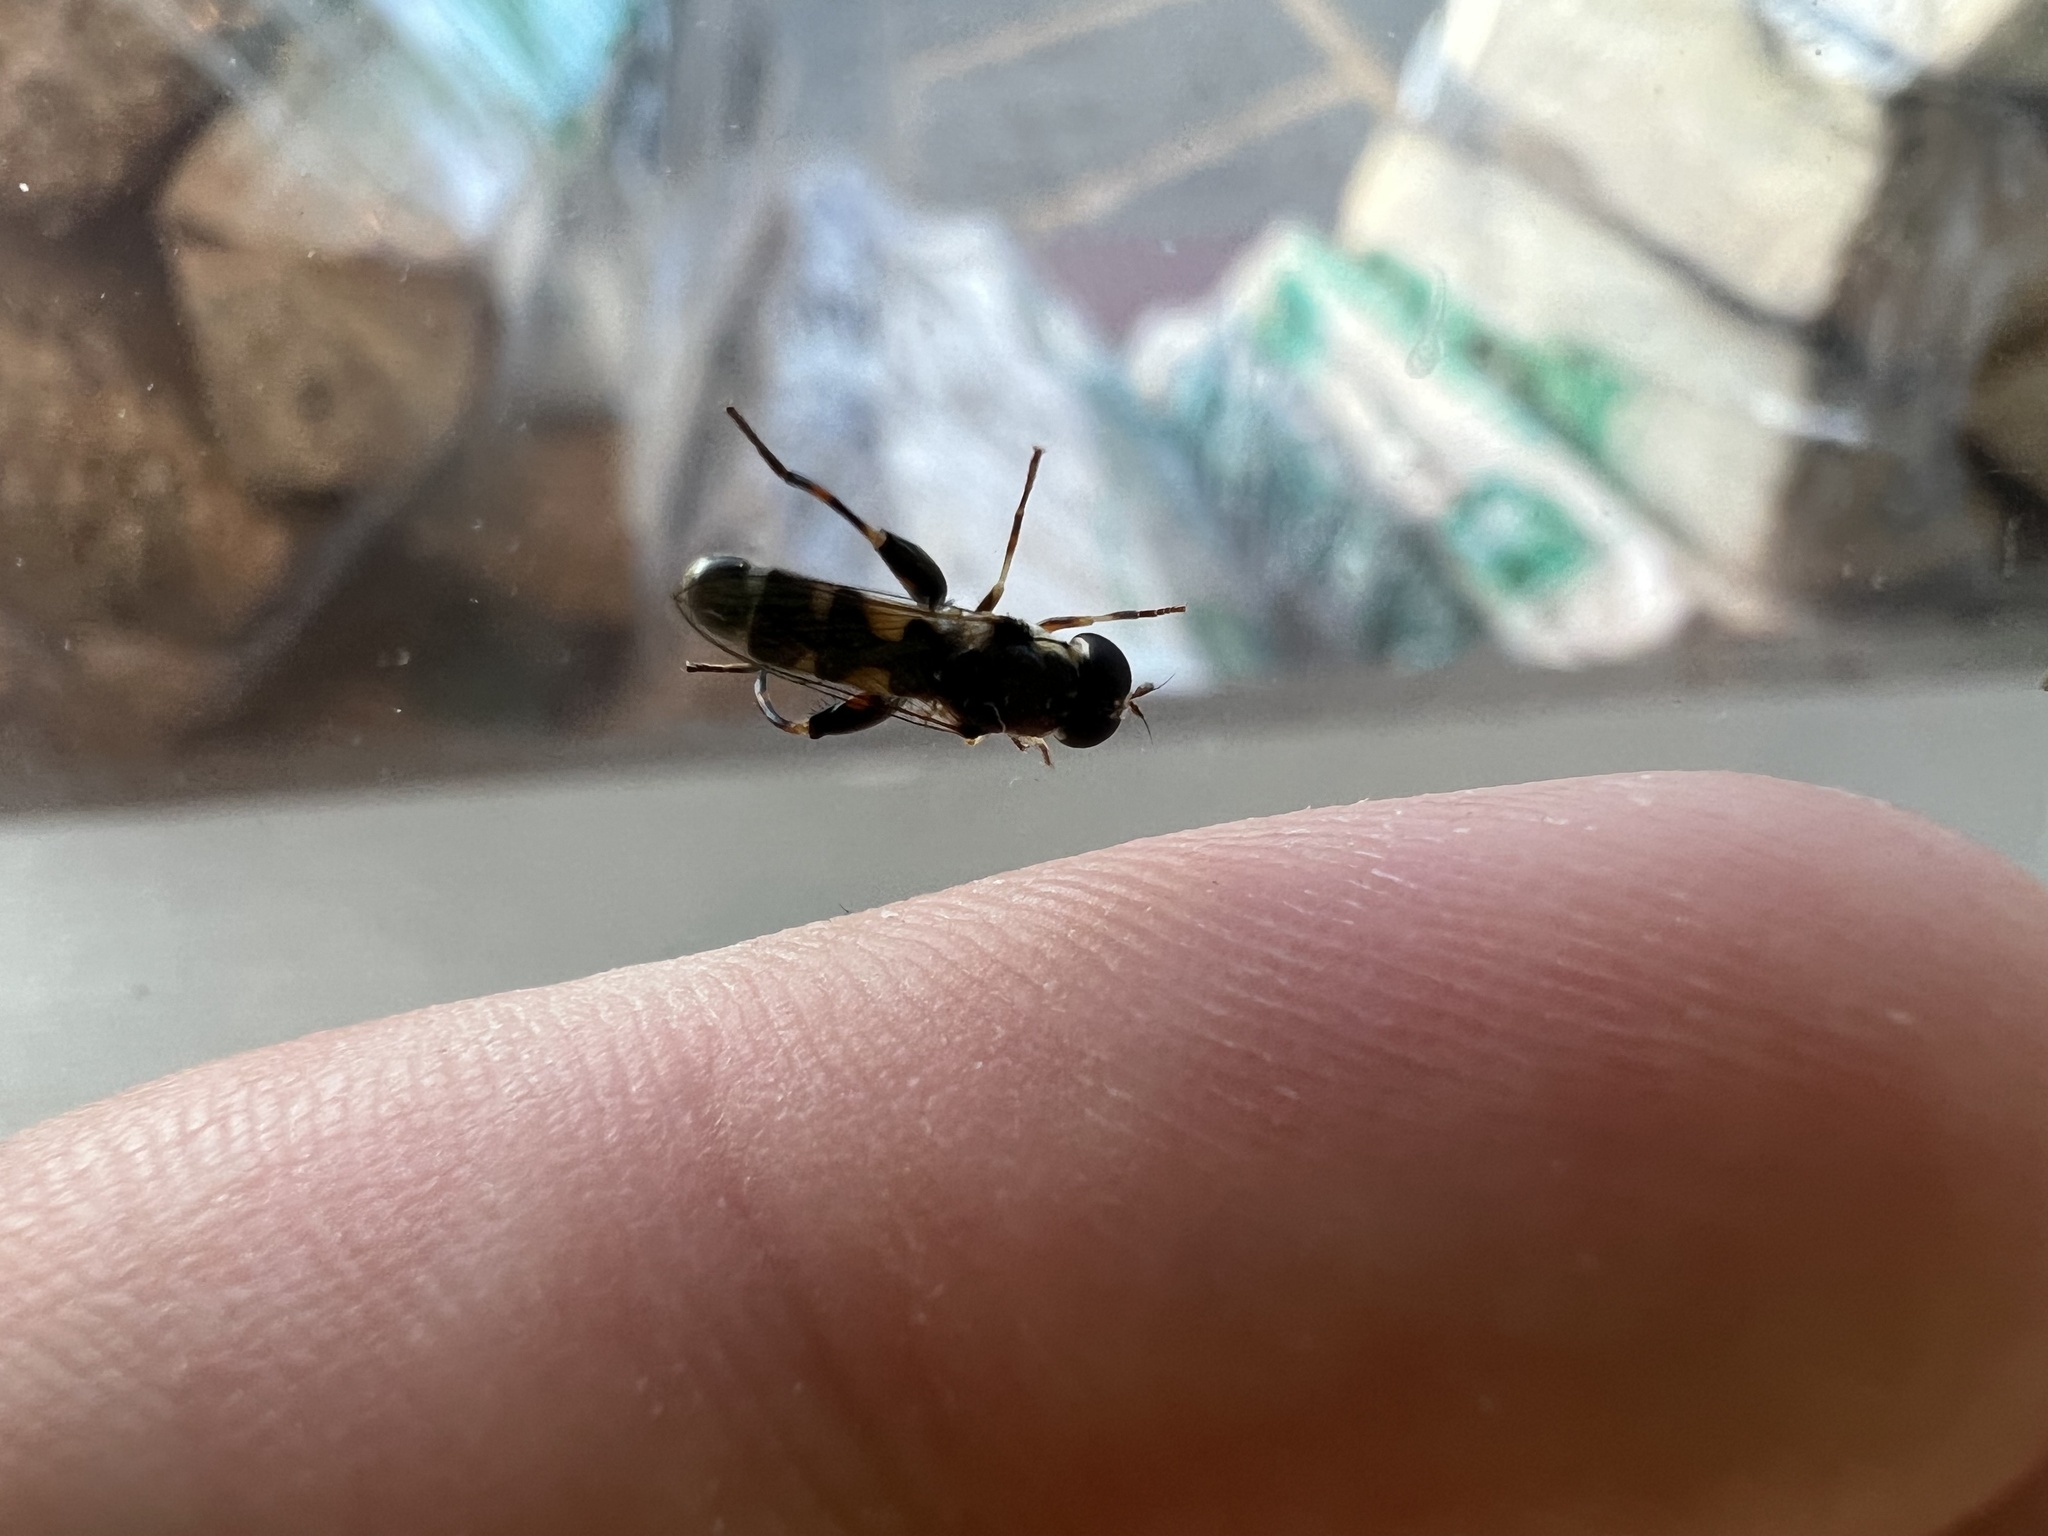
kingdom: Animalia
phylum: Arthropoda
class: Insecta
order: Diptera
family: Syrphidae
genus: Syritta
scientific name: Syritta pipiens
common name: Hover fly
